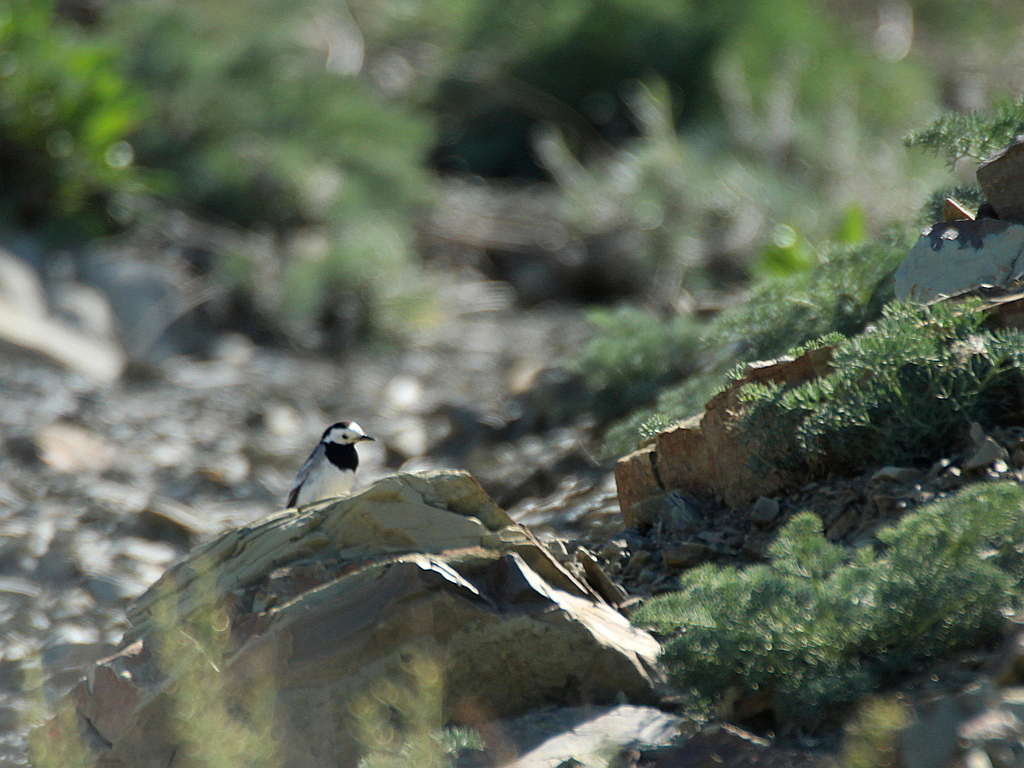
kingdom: Animalia
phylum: Chordata
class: Aves
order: Passeriformes
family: Motacillidae
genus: Motacilla
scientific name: Motacilla alba
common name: White wagtail
